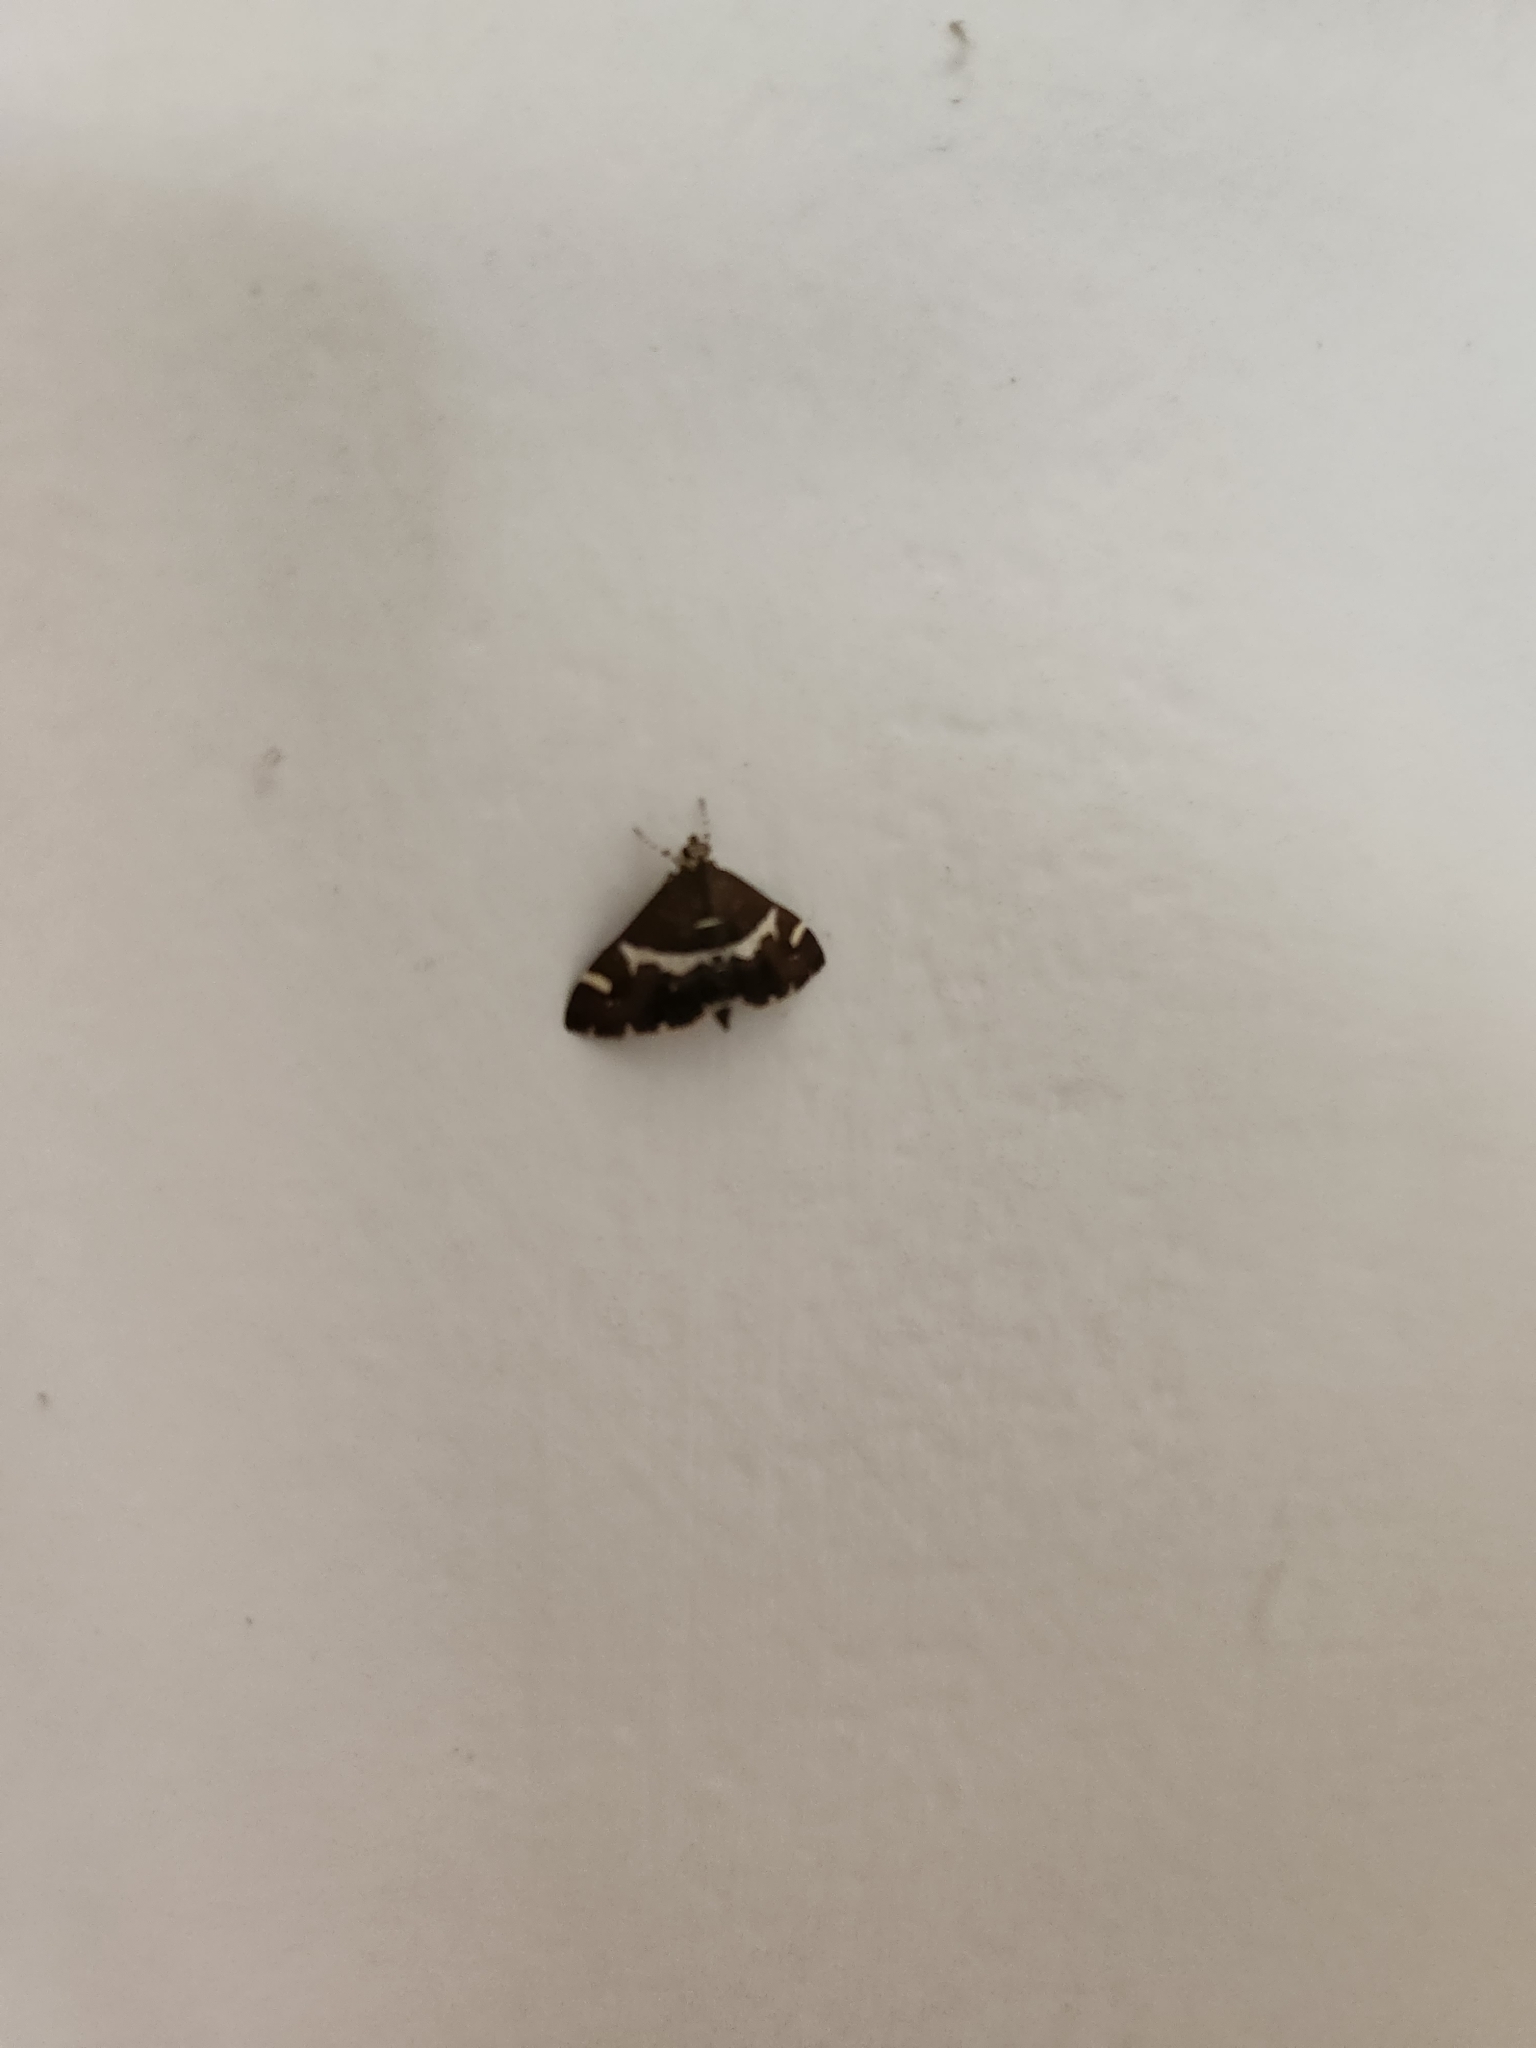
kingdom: Animalia
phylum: Arthropoda
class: Insecta
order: Lepidoptera
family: Crambidae
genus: Spoladea
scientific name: Spoladea recurvalis
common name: Beet webworm moth
